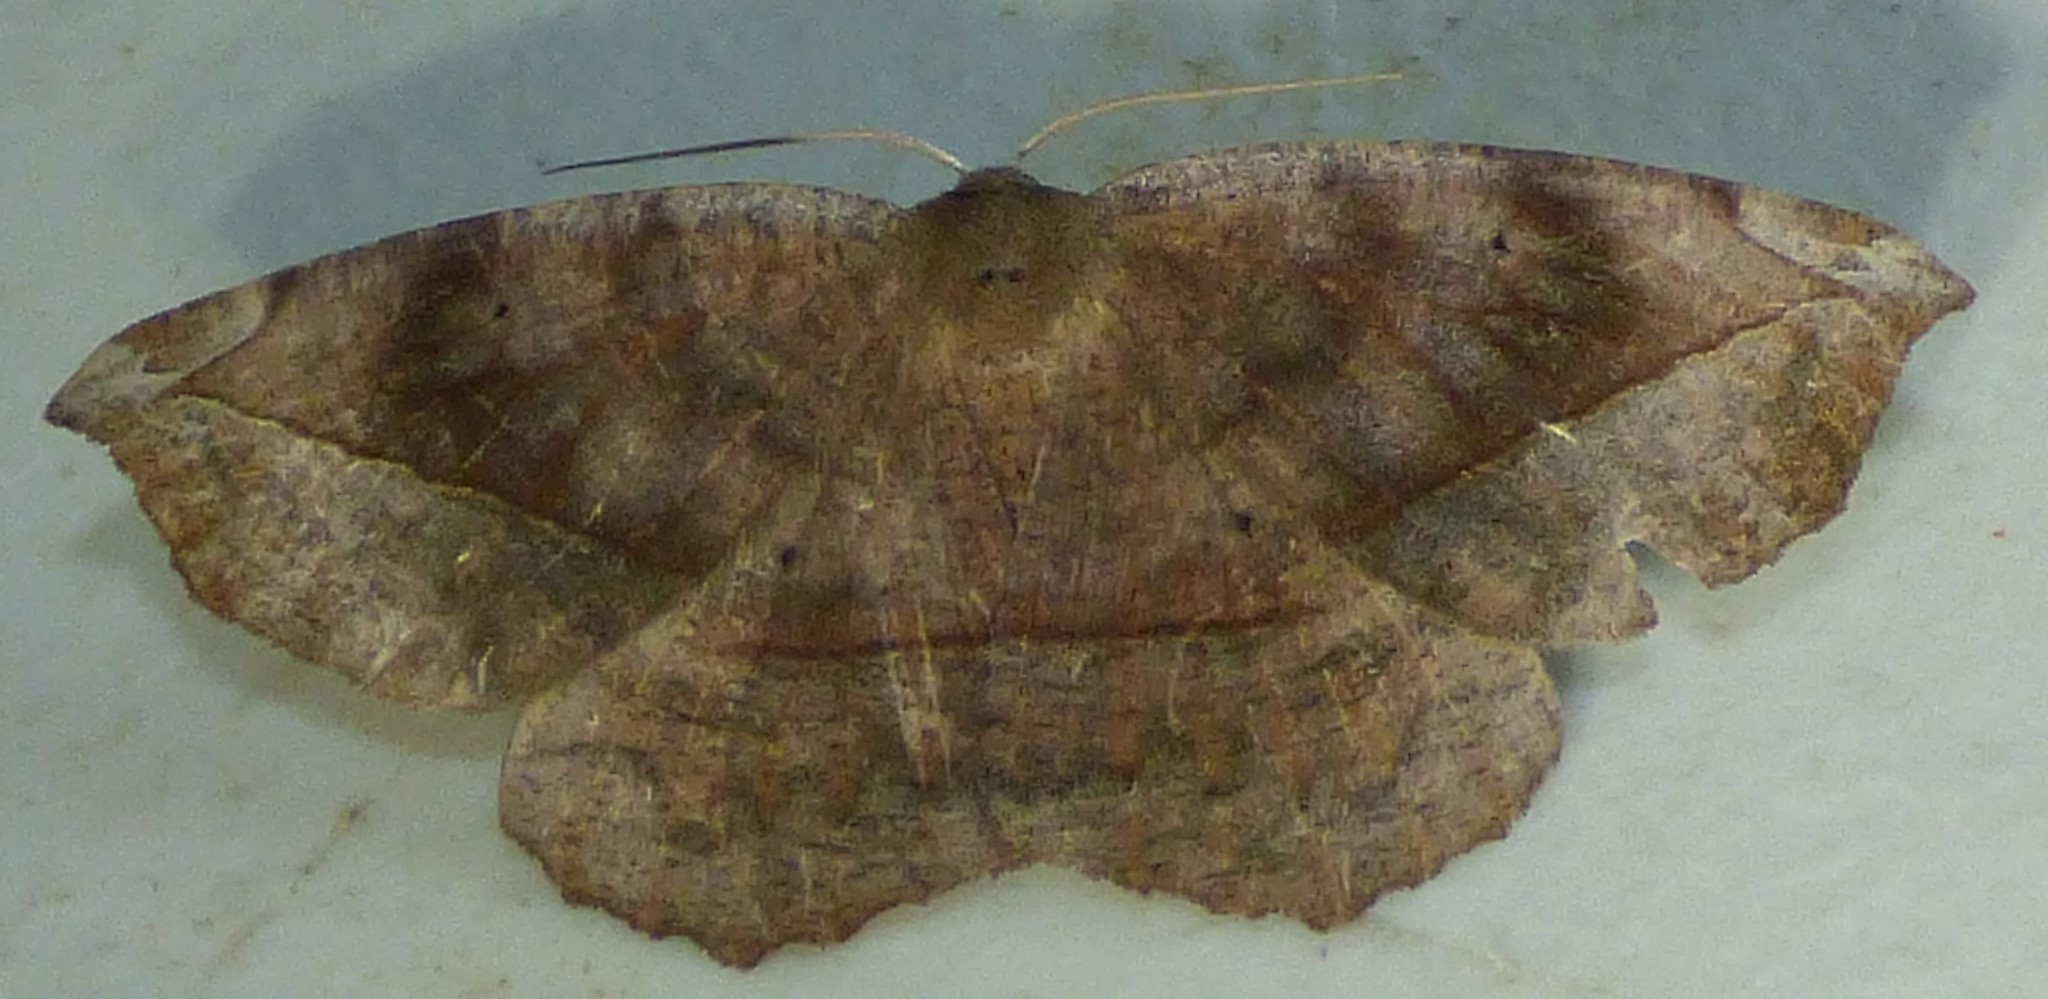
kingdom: Animalia
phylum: Arthropoda
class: Insecta
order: Lepidoptera
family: Geometridae
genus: Eutrapela
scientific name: Eutrapela clemataria
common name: Curved-toothed geometer
